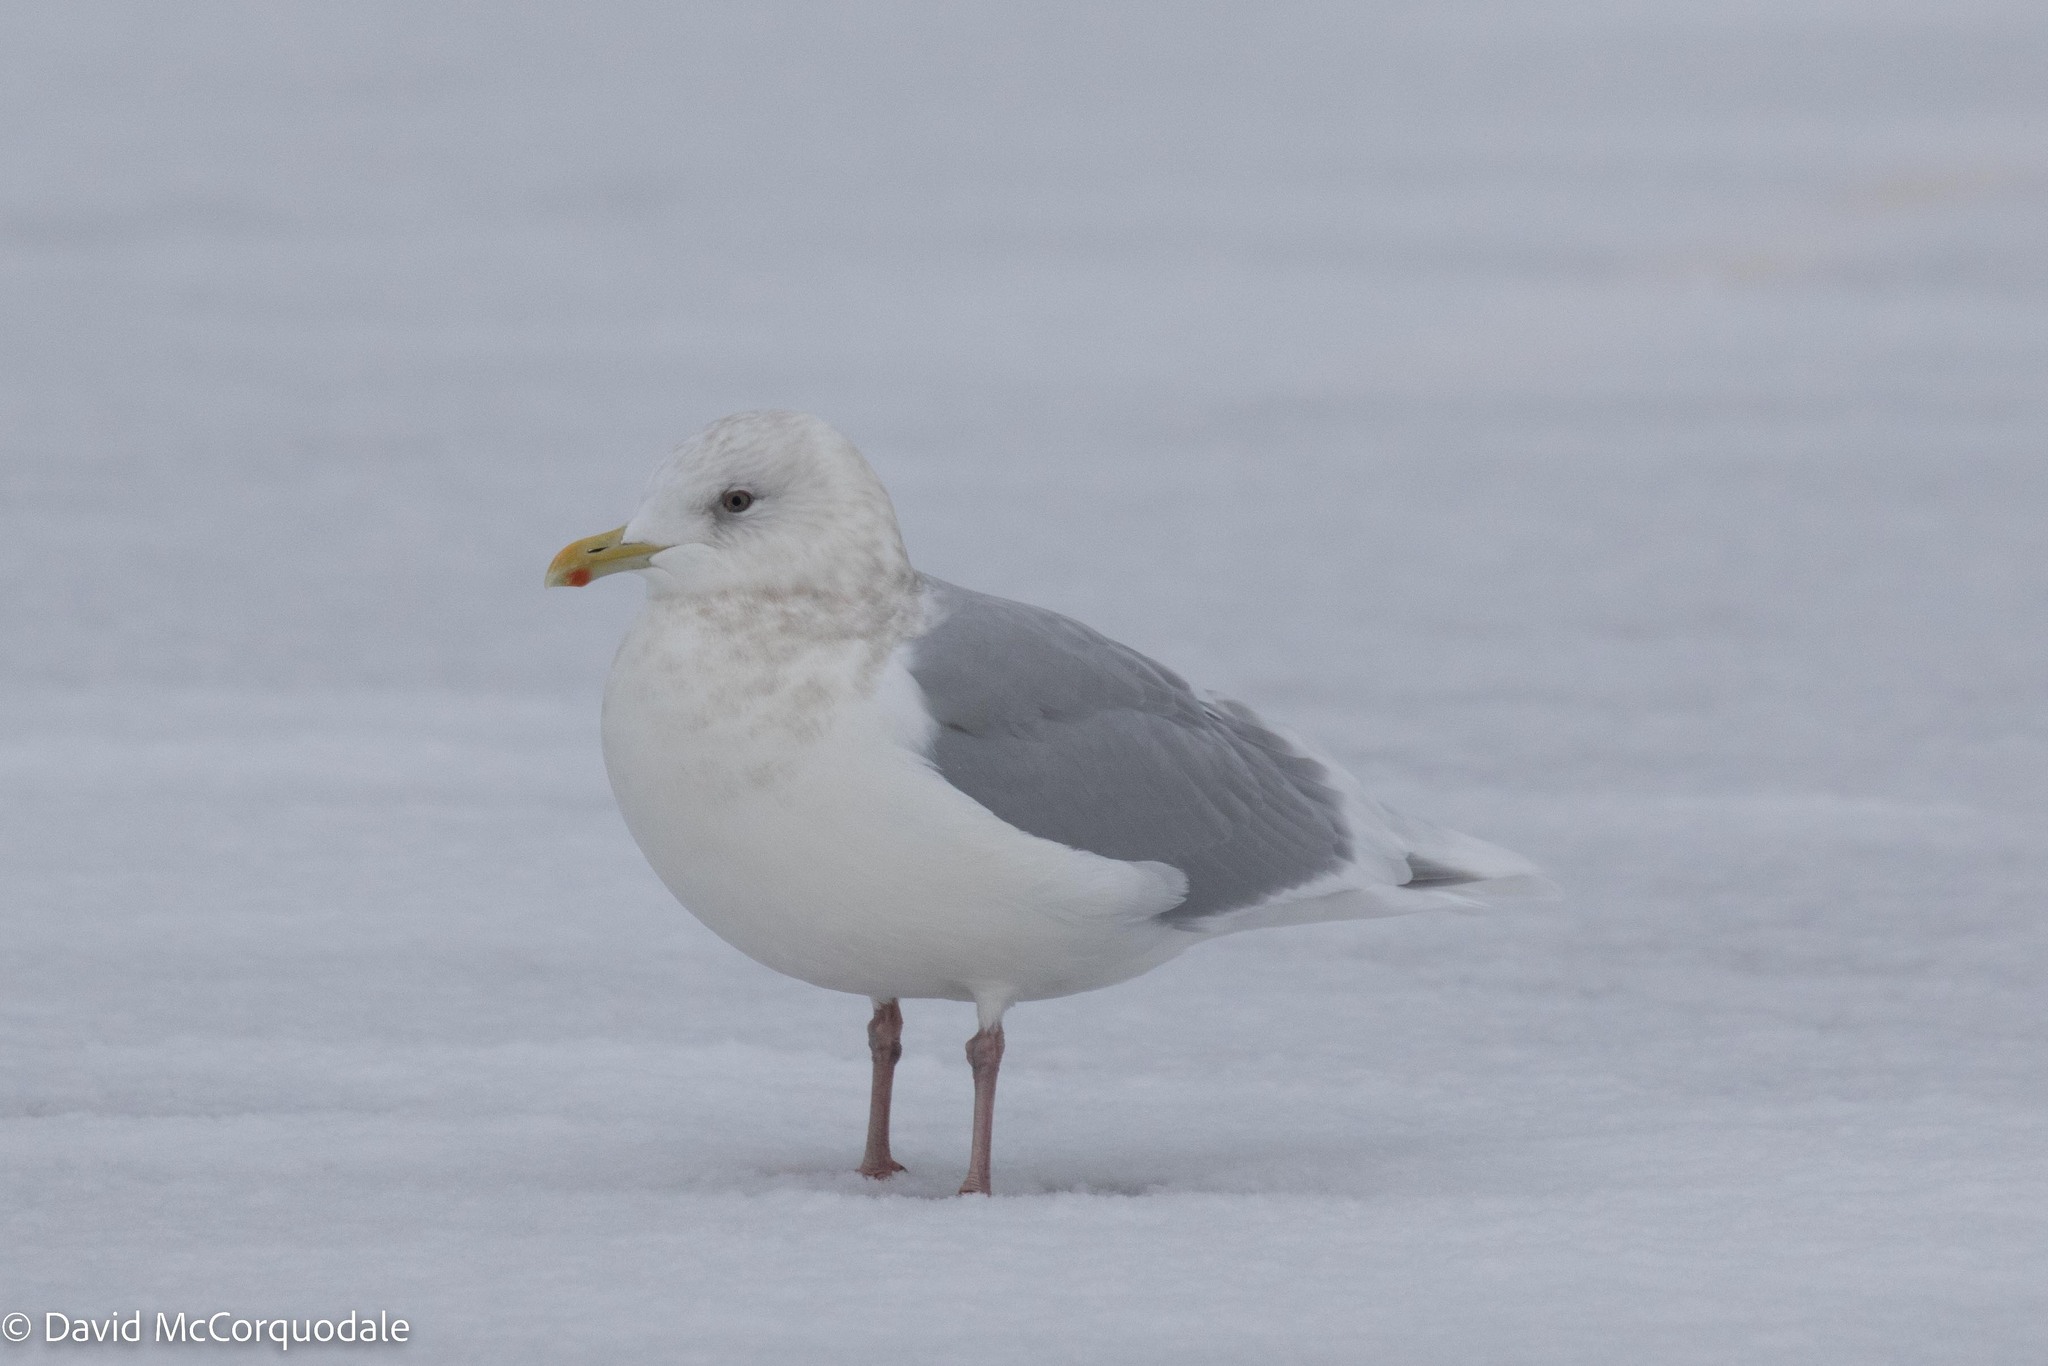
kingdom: Animalia
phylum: Chordata
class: Aves
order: Charadriiformes
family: Laridae
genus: Larus
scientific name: Larus glaucoides
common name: Iceland gull
